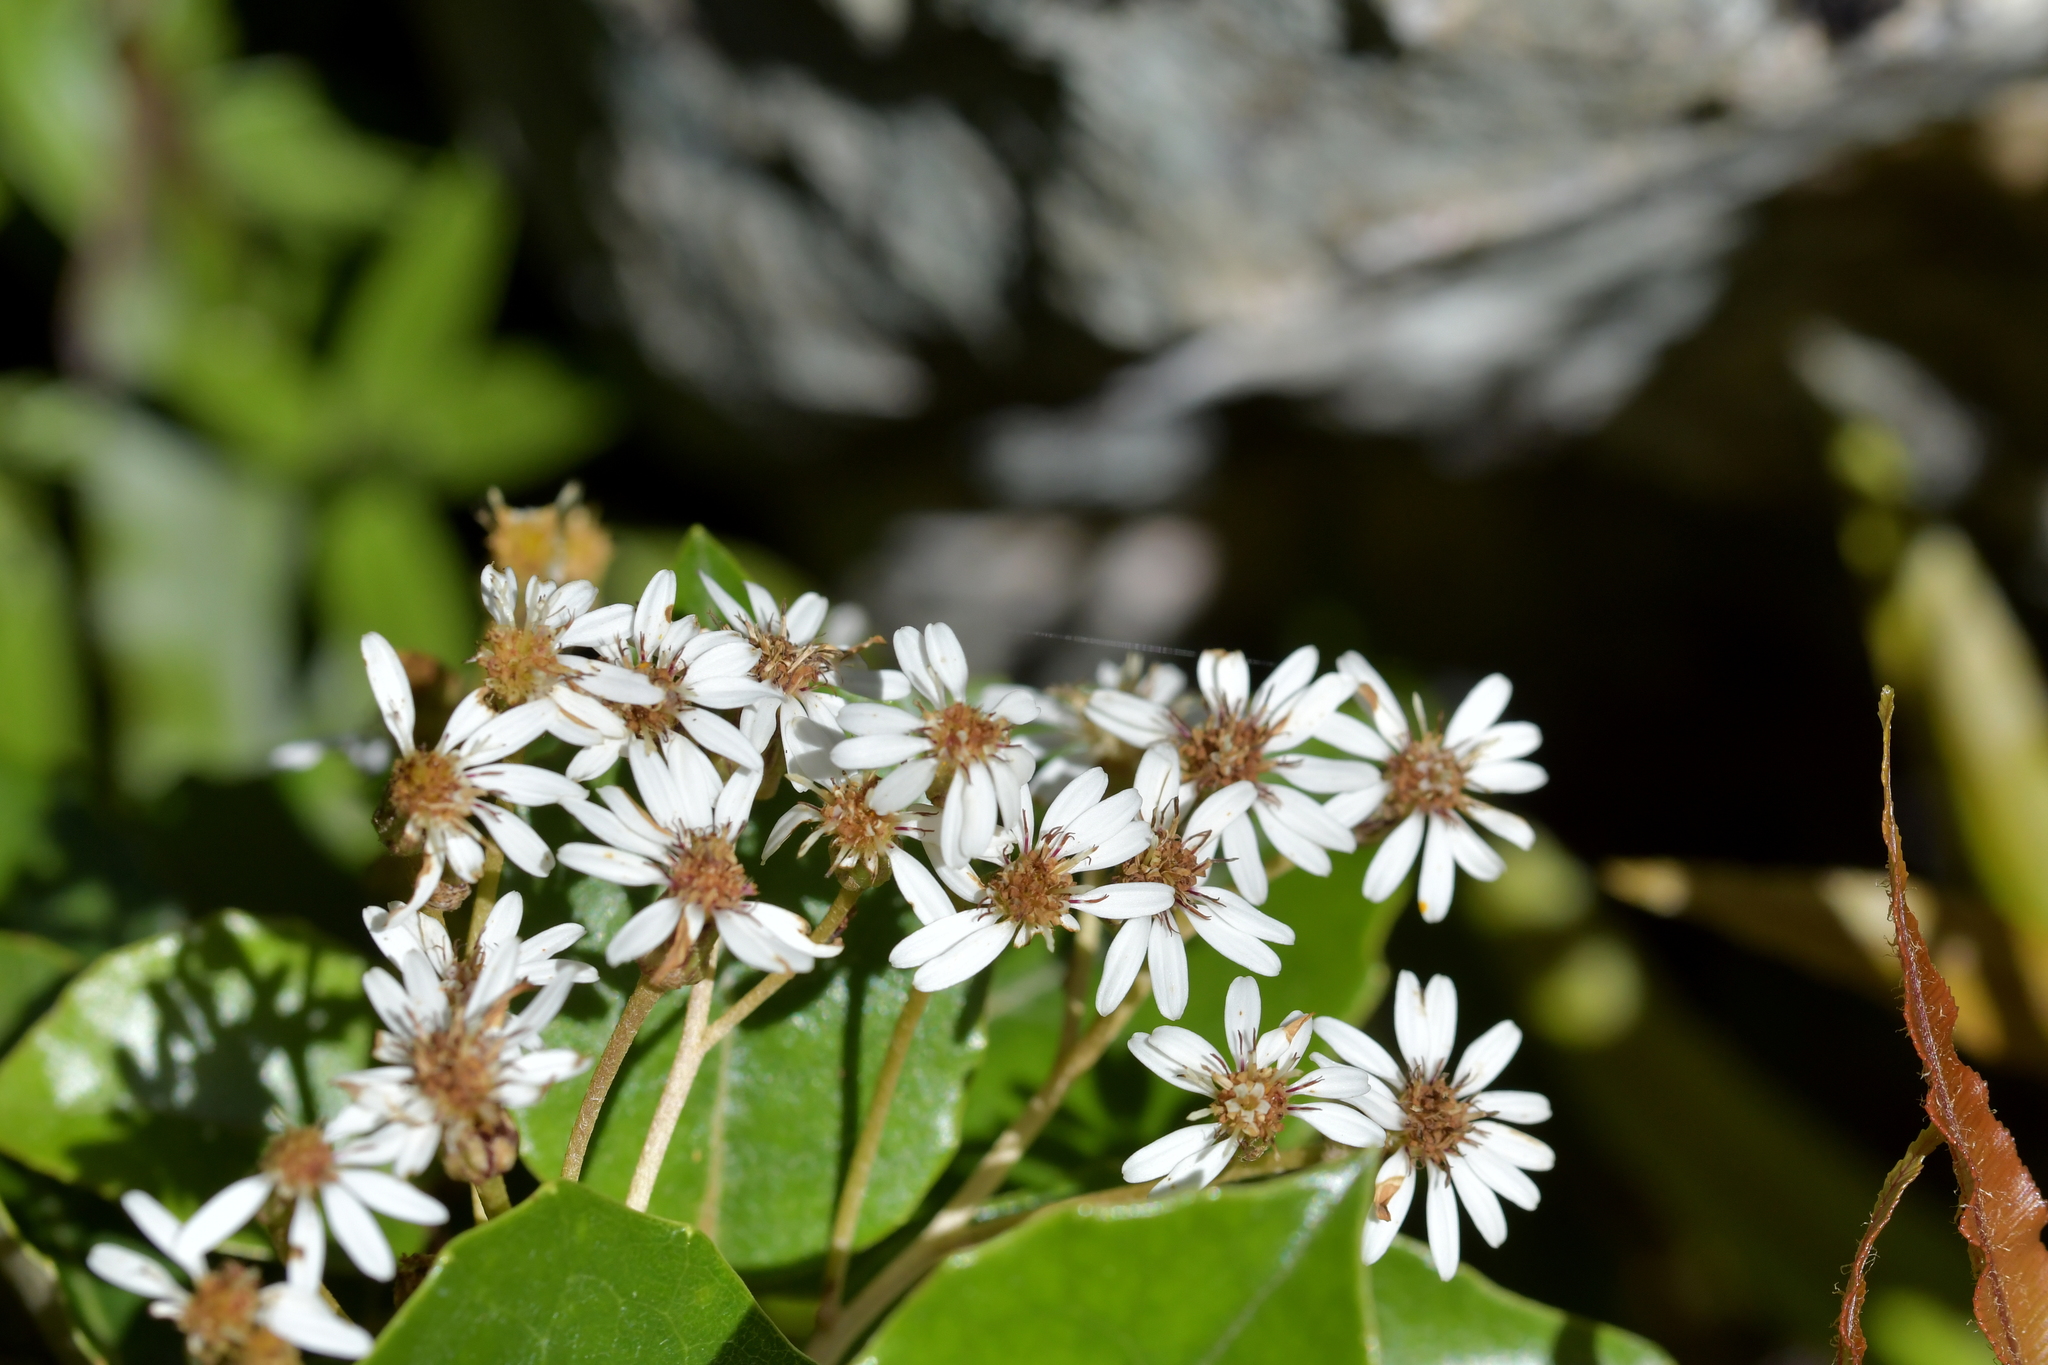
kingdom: Plantae
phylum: Tracheophyta
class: Magnoliopsida
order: Asterales
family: Asteraceae
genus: Olearia
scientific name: Olearia arborescens
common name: Glossy tree daisy
